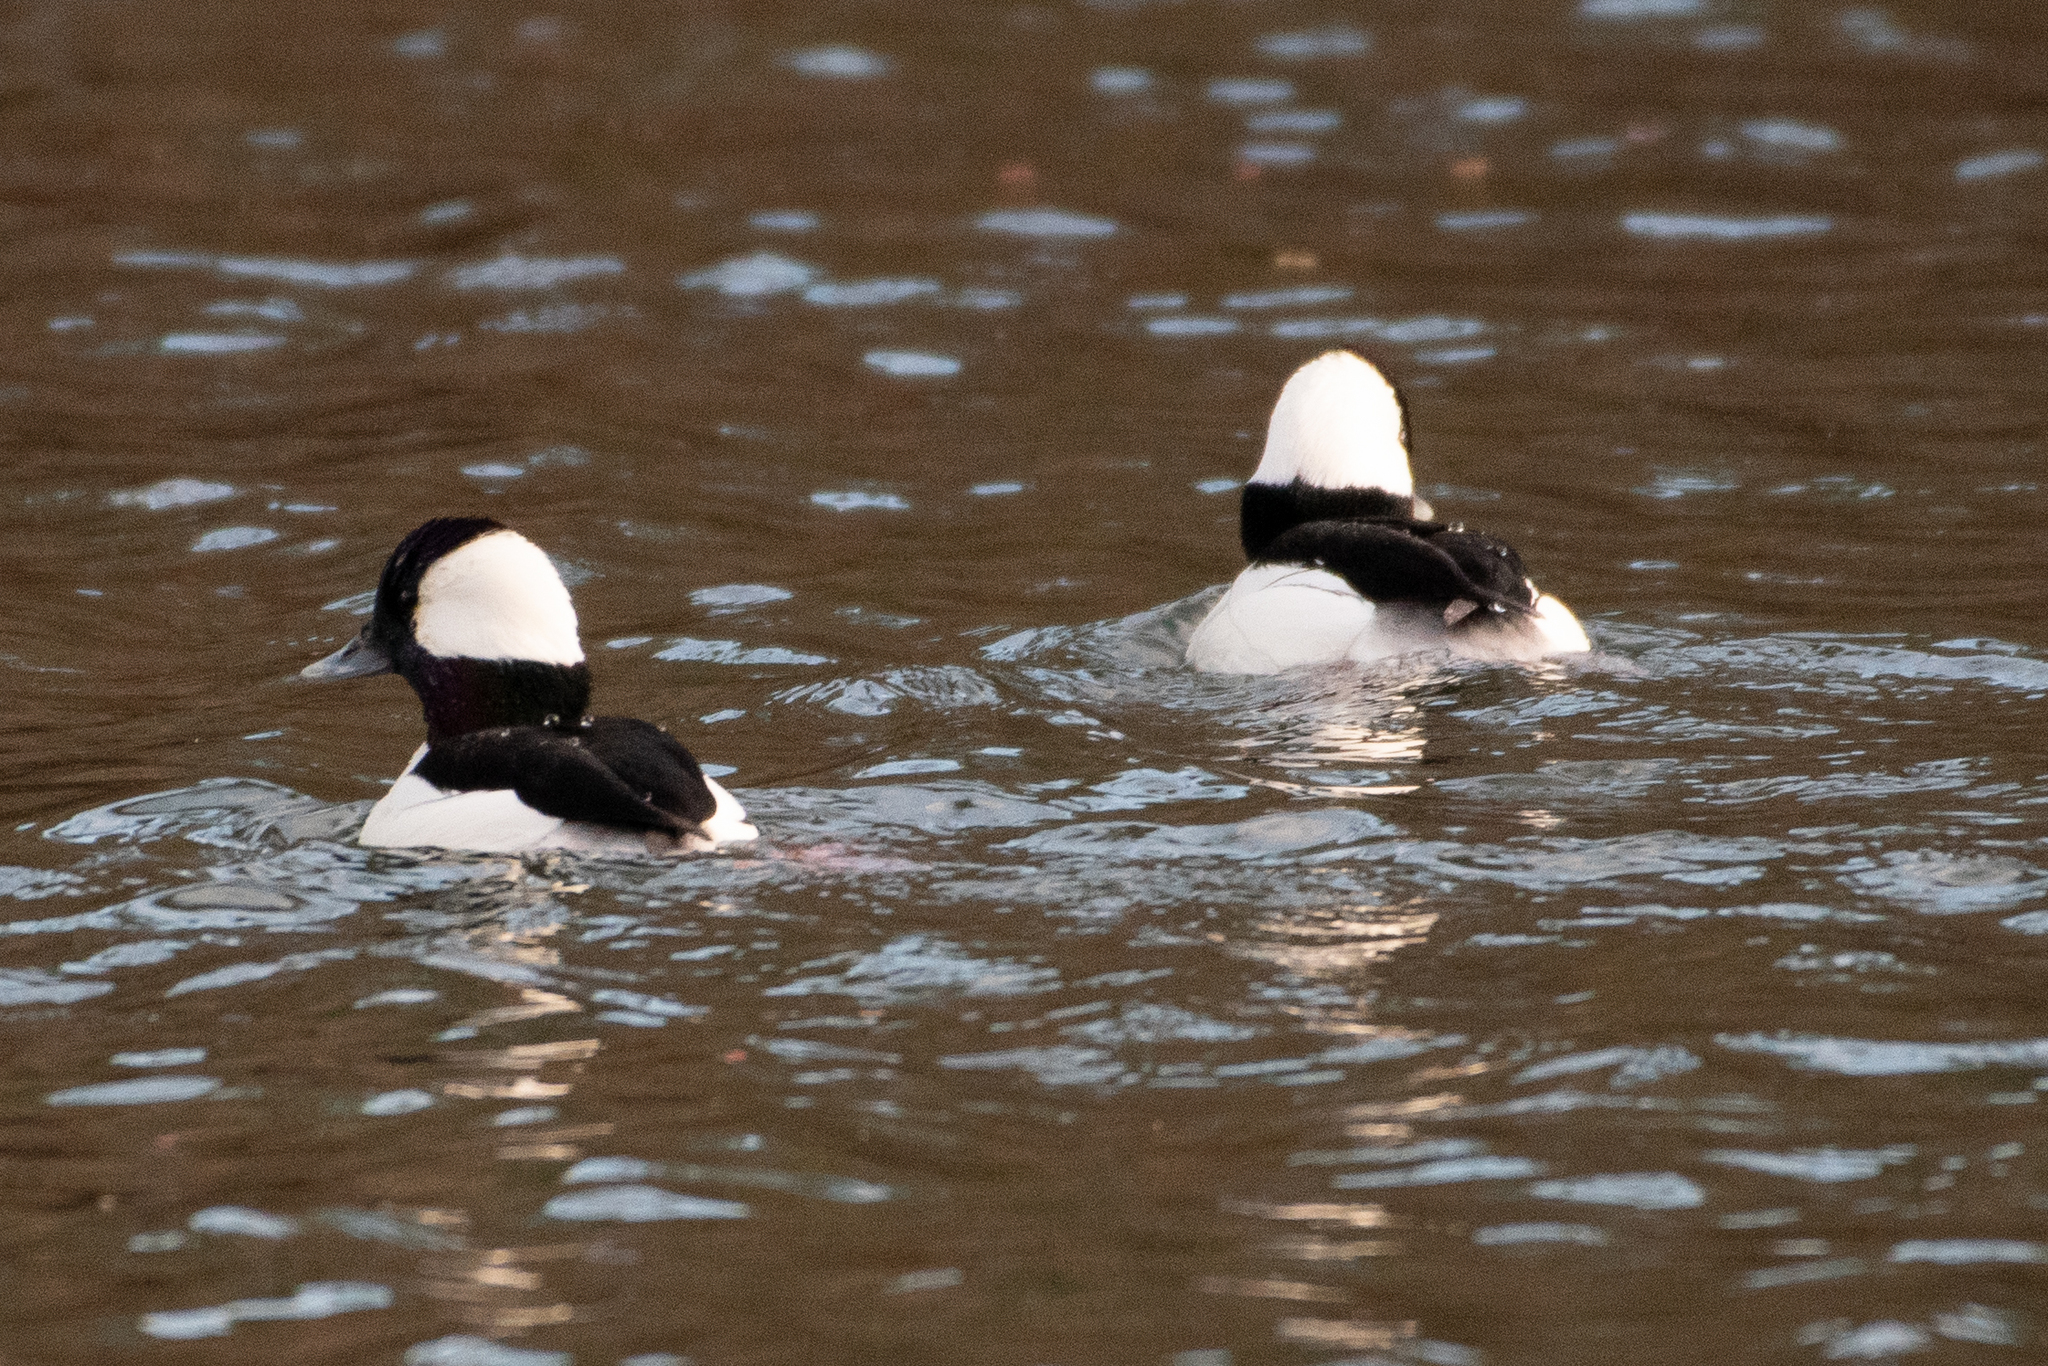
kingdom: Animalia
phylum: Chordata
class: Aves
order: Anseriformes
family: Anatidae
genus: Bucephala
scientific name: Bucephala albeola
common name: Bufflehead
